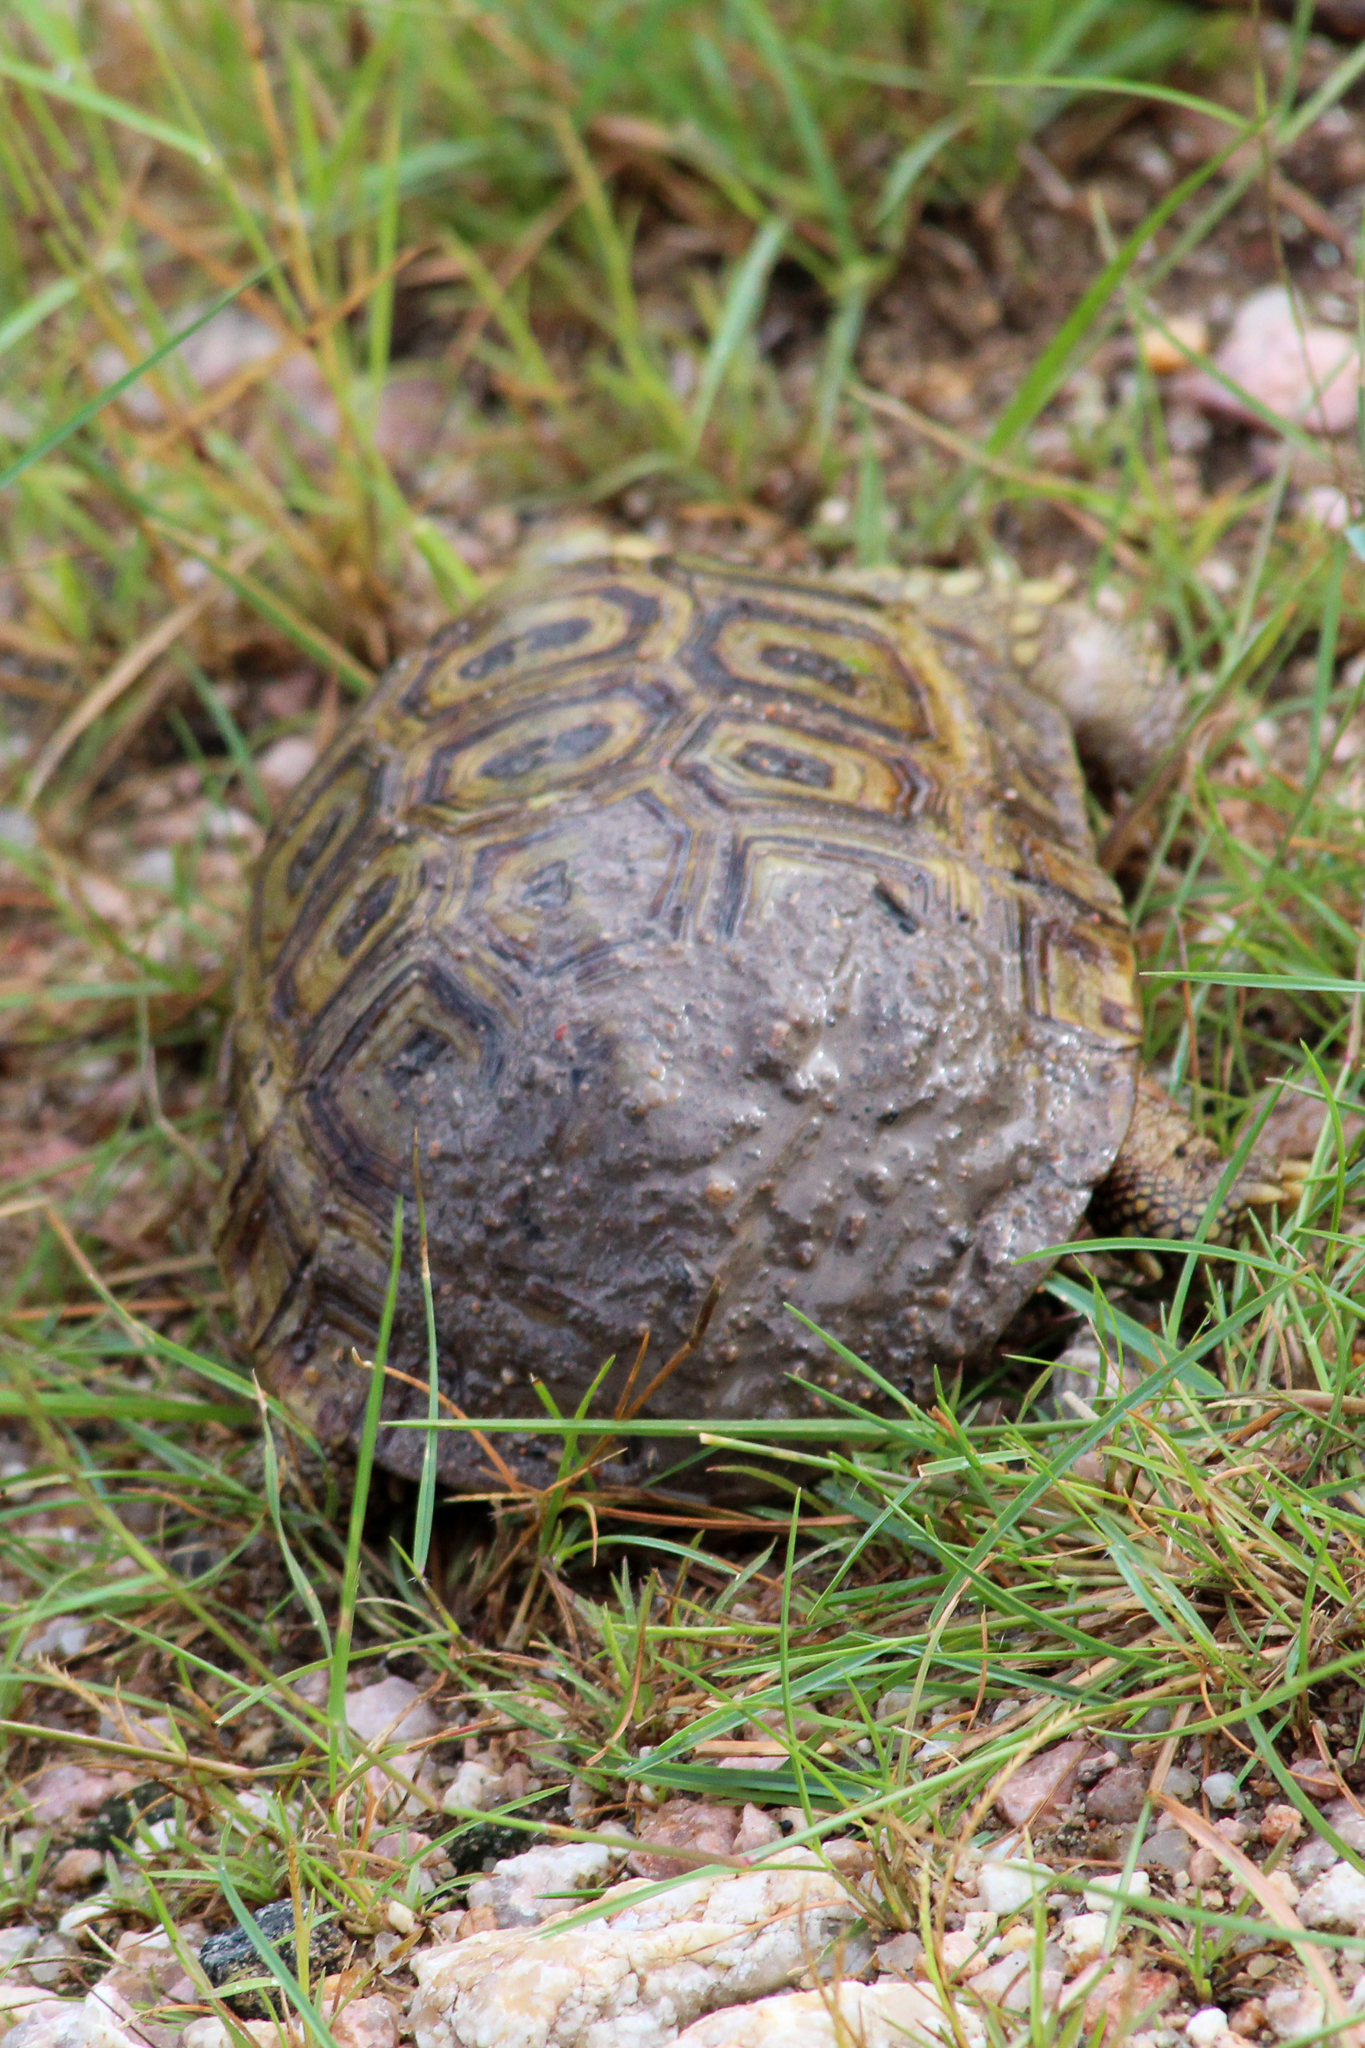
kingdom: Animalia
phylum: Chordata
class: Testudines
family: Testudinidae
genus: Kinixys
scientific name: Kinixys spekii
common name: Speke's hingeback tortoise
